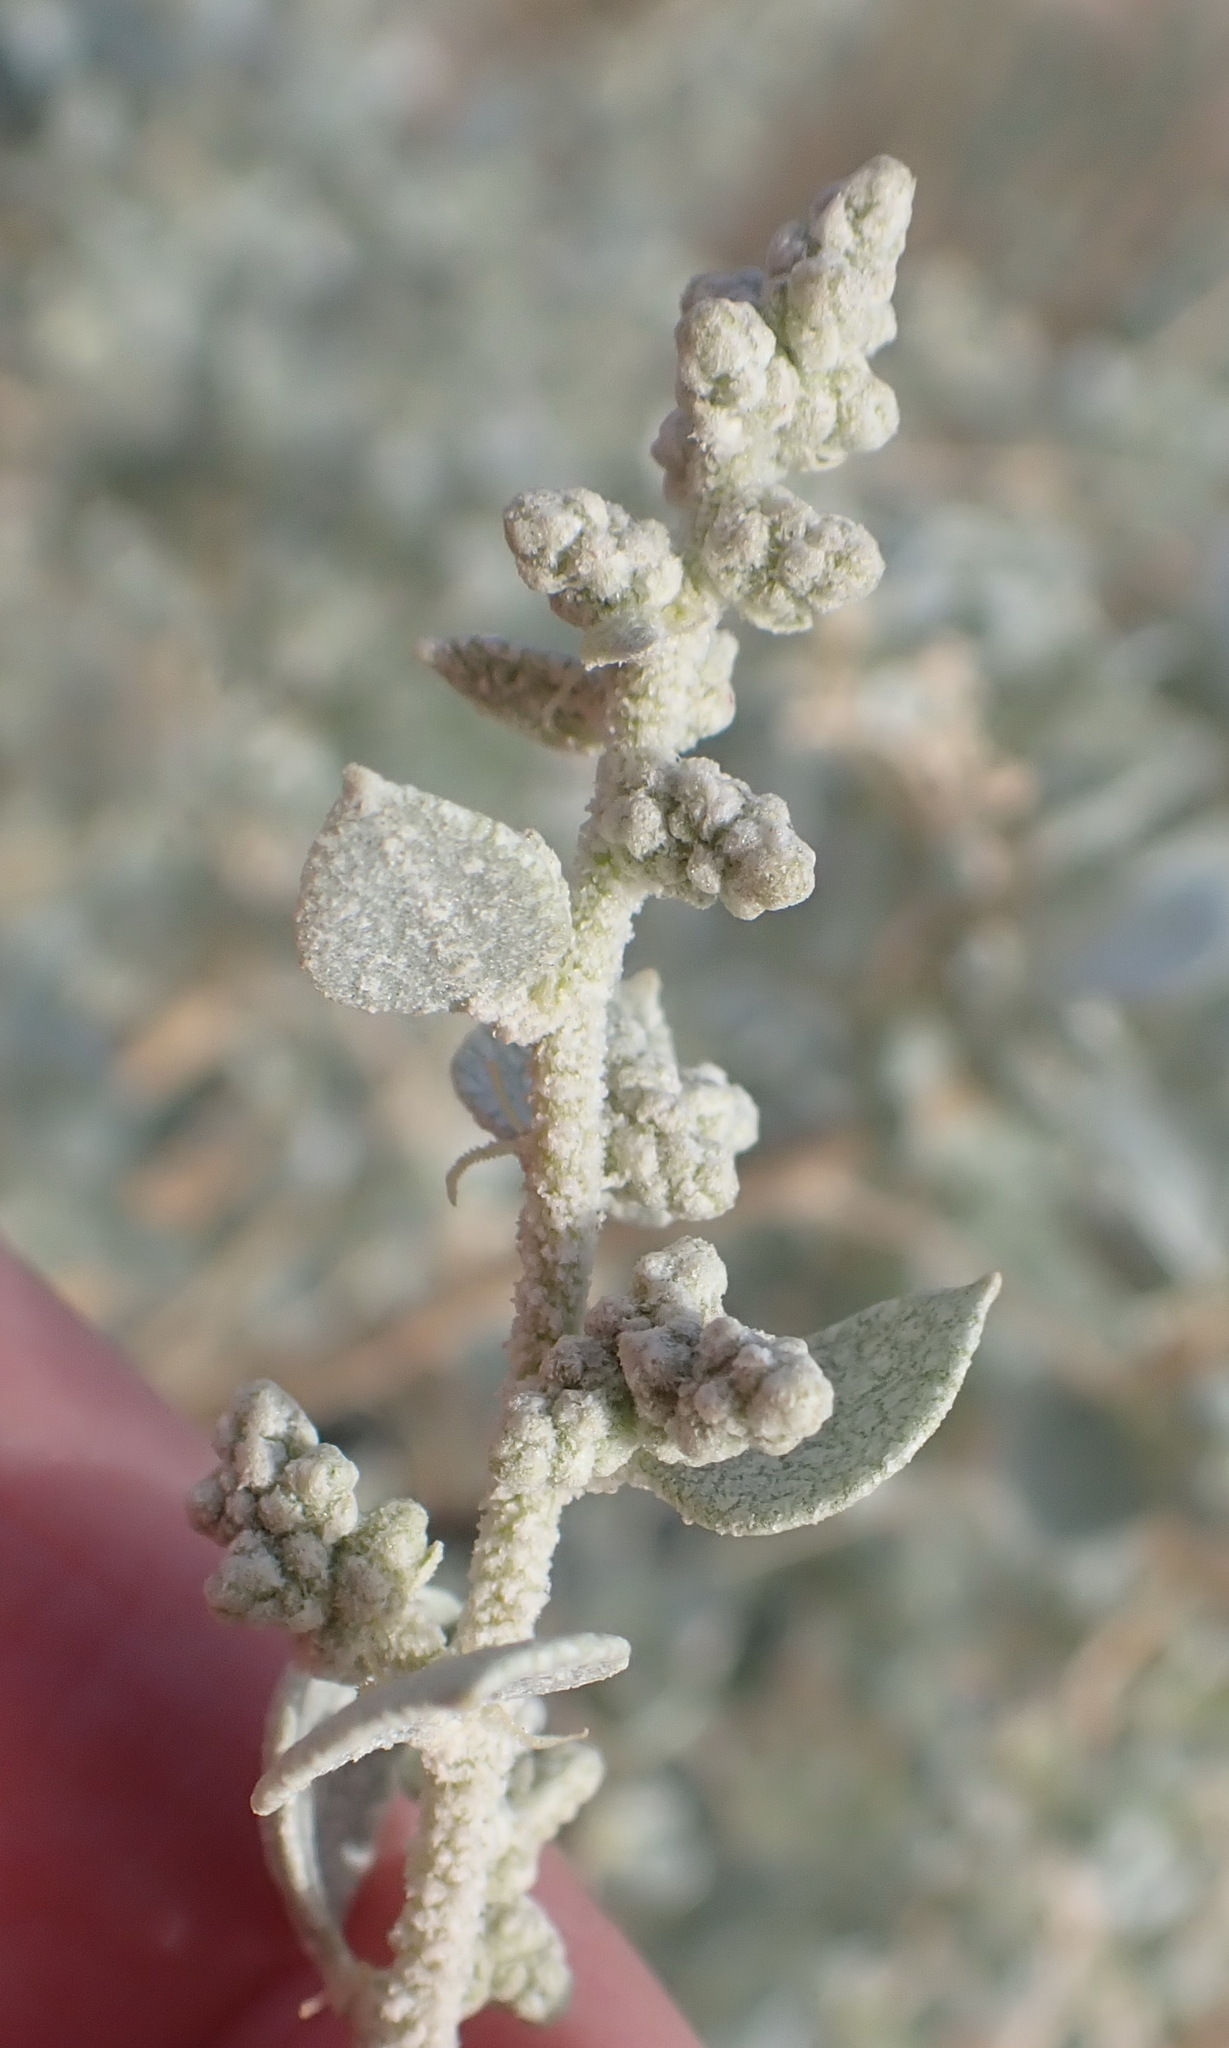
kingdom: Plantae
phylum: Tracheophyta
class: Magnoliopsida
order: Caryophyllales
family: Amaranthaceae
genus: Atriplex
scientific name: Atriplex nummularia
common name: Bluegreen saltbush
